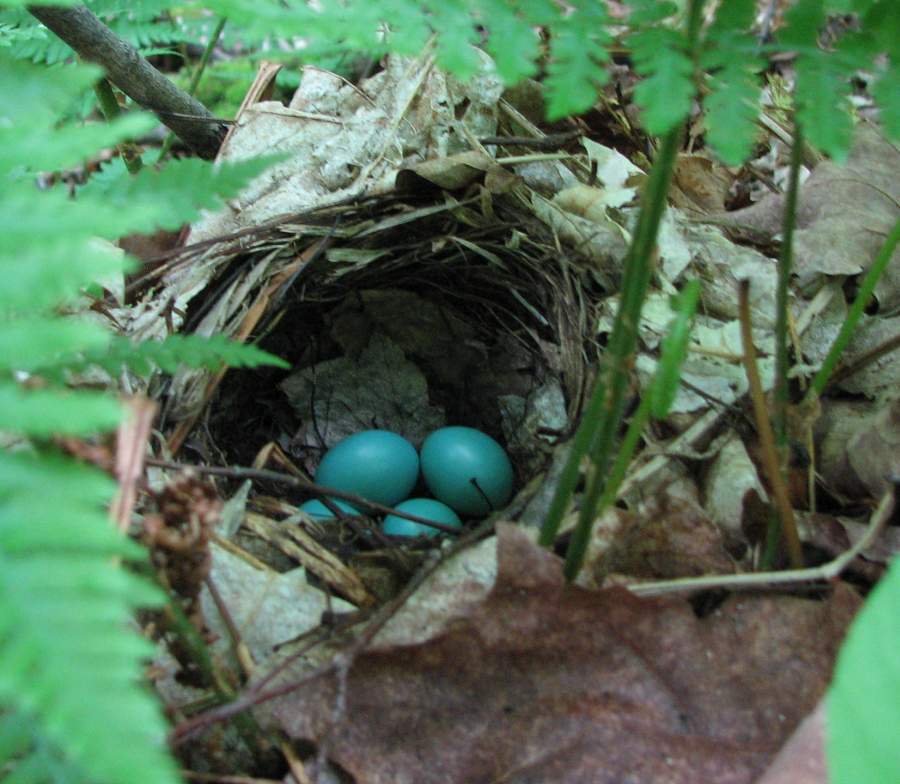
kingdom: Animalia
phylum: Chordata
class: Aves
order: Passeriformes
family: Turdidae
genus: Catharus
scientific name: Catharus fuscescens
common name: Veery
